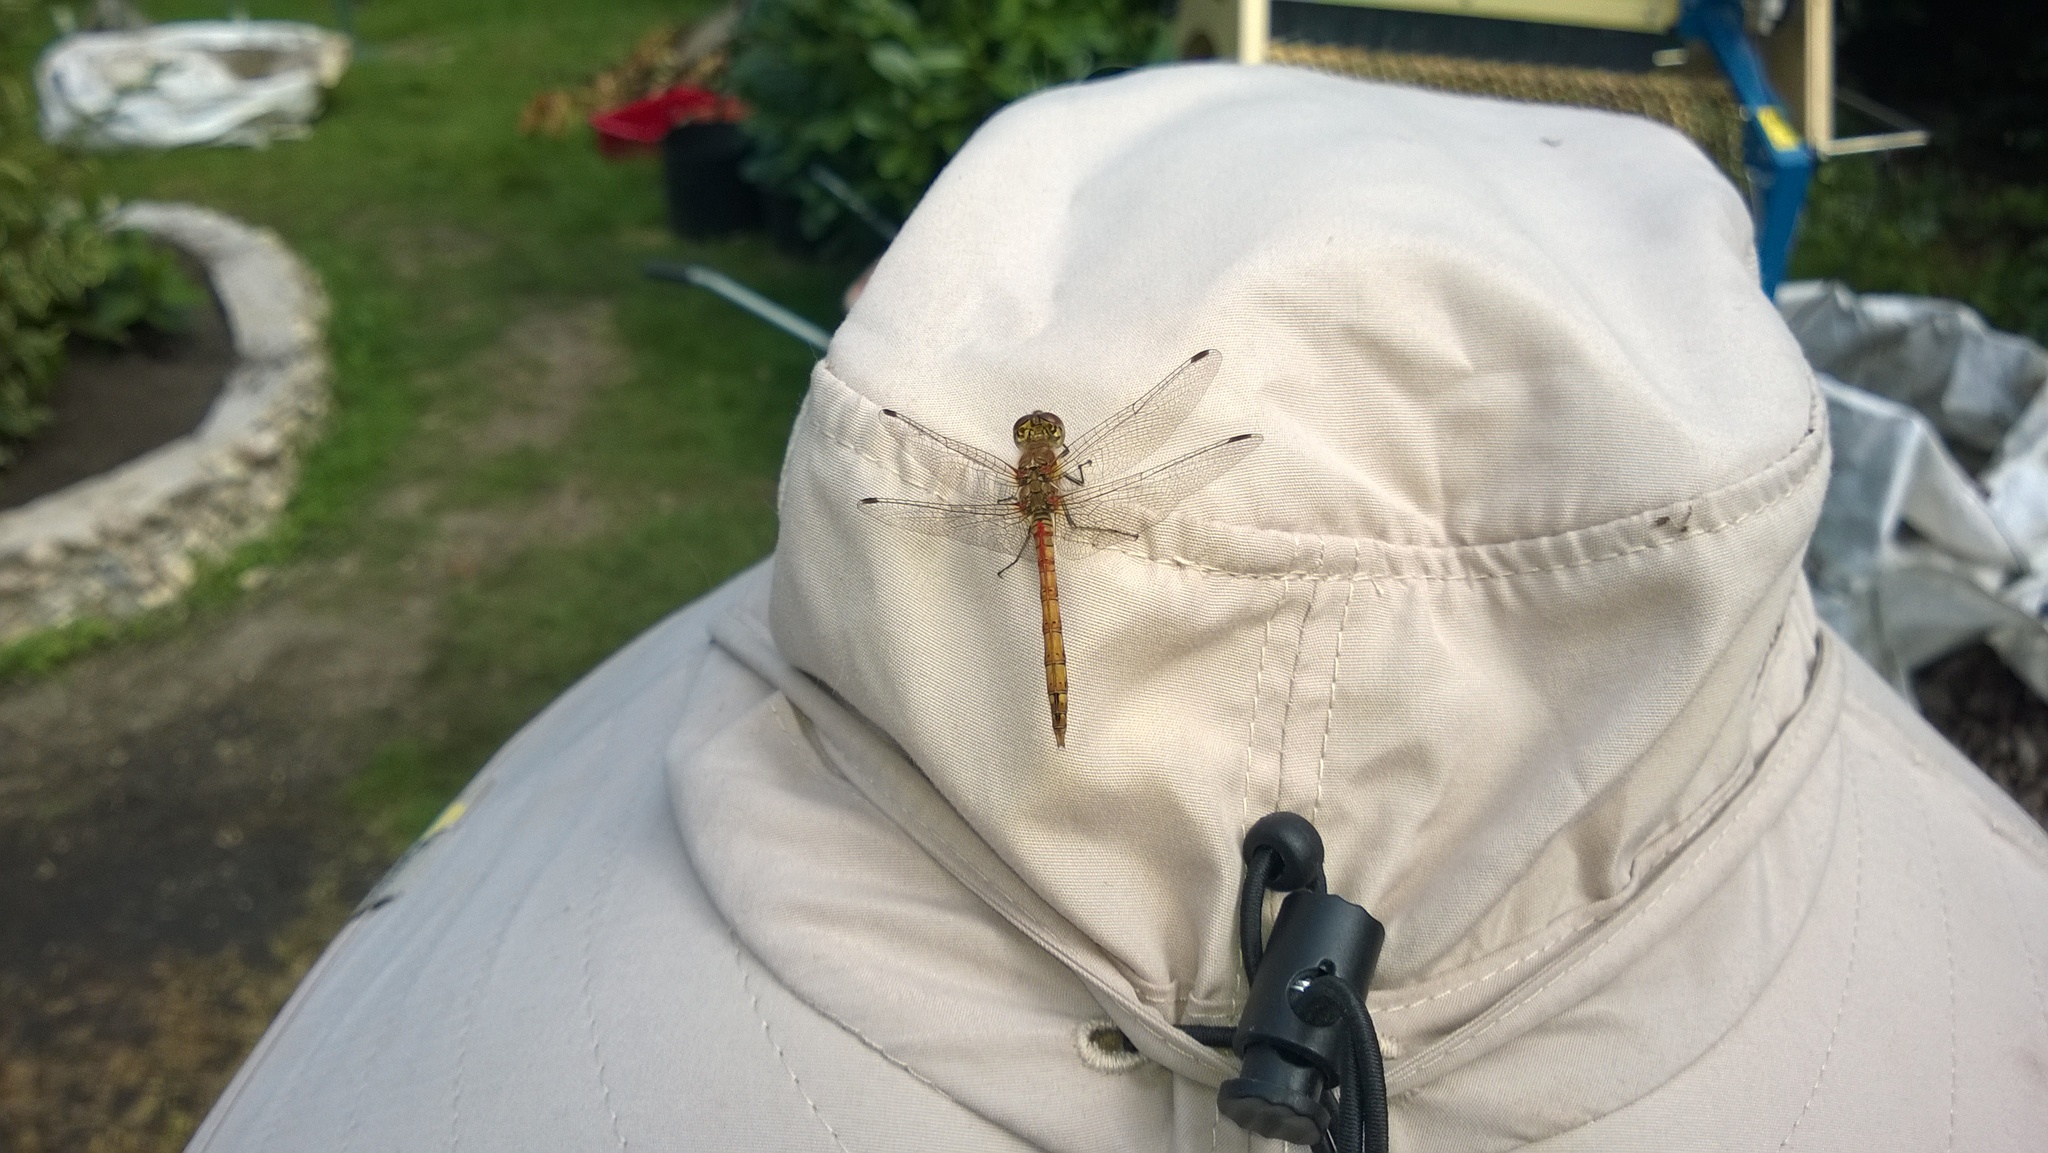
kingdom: Animalia
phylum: Arthropoda
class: Insecta
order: Odonata
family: Libellulidae
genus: Sympetrum
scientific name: Sympetrum striolatum
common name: Common darter
